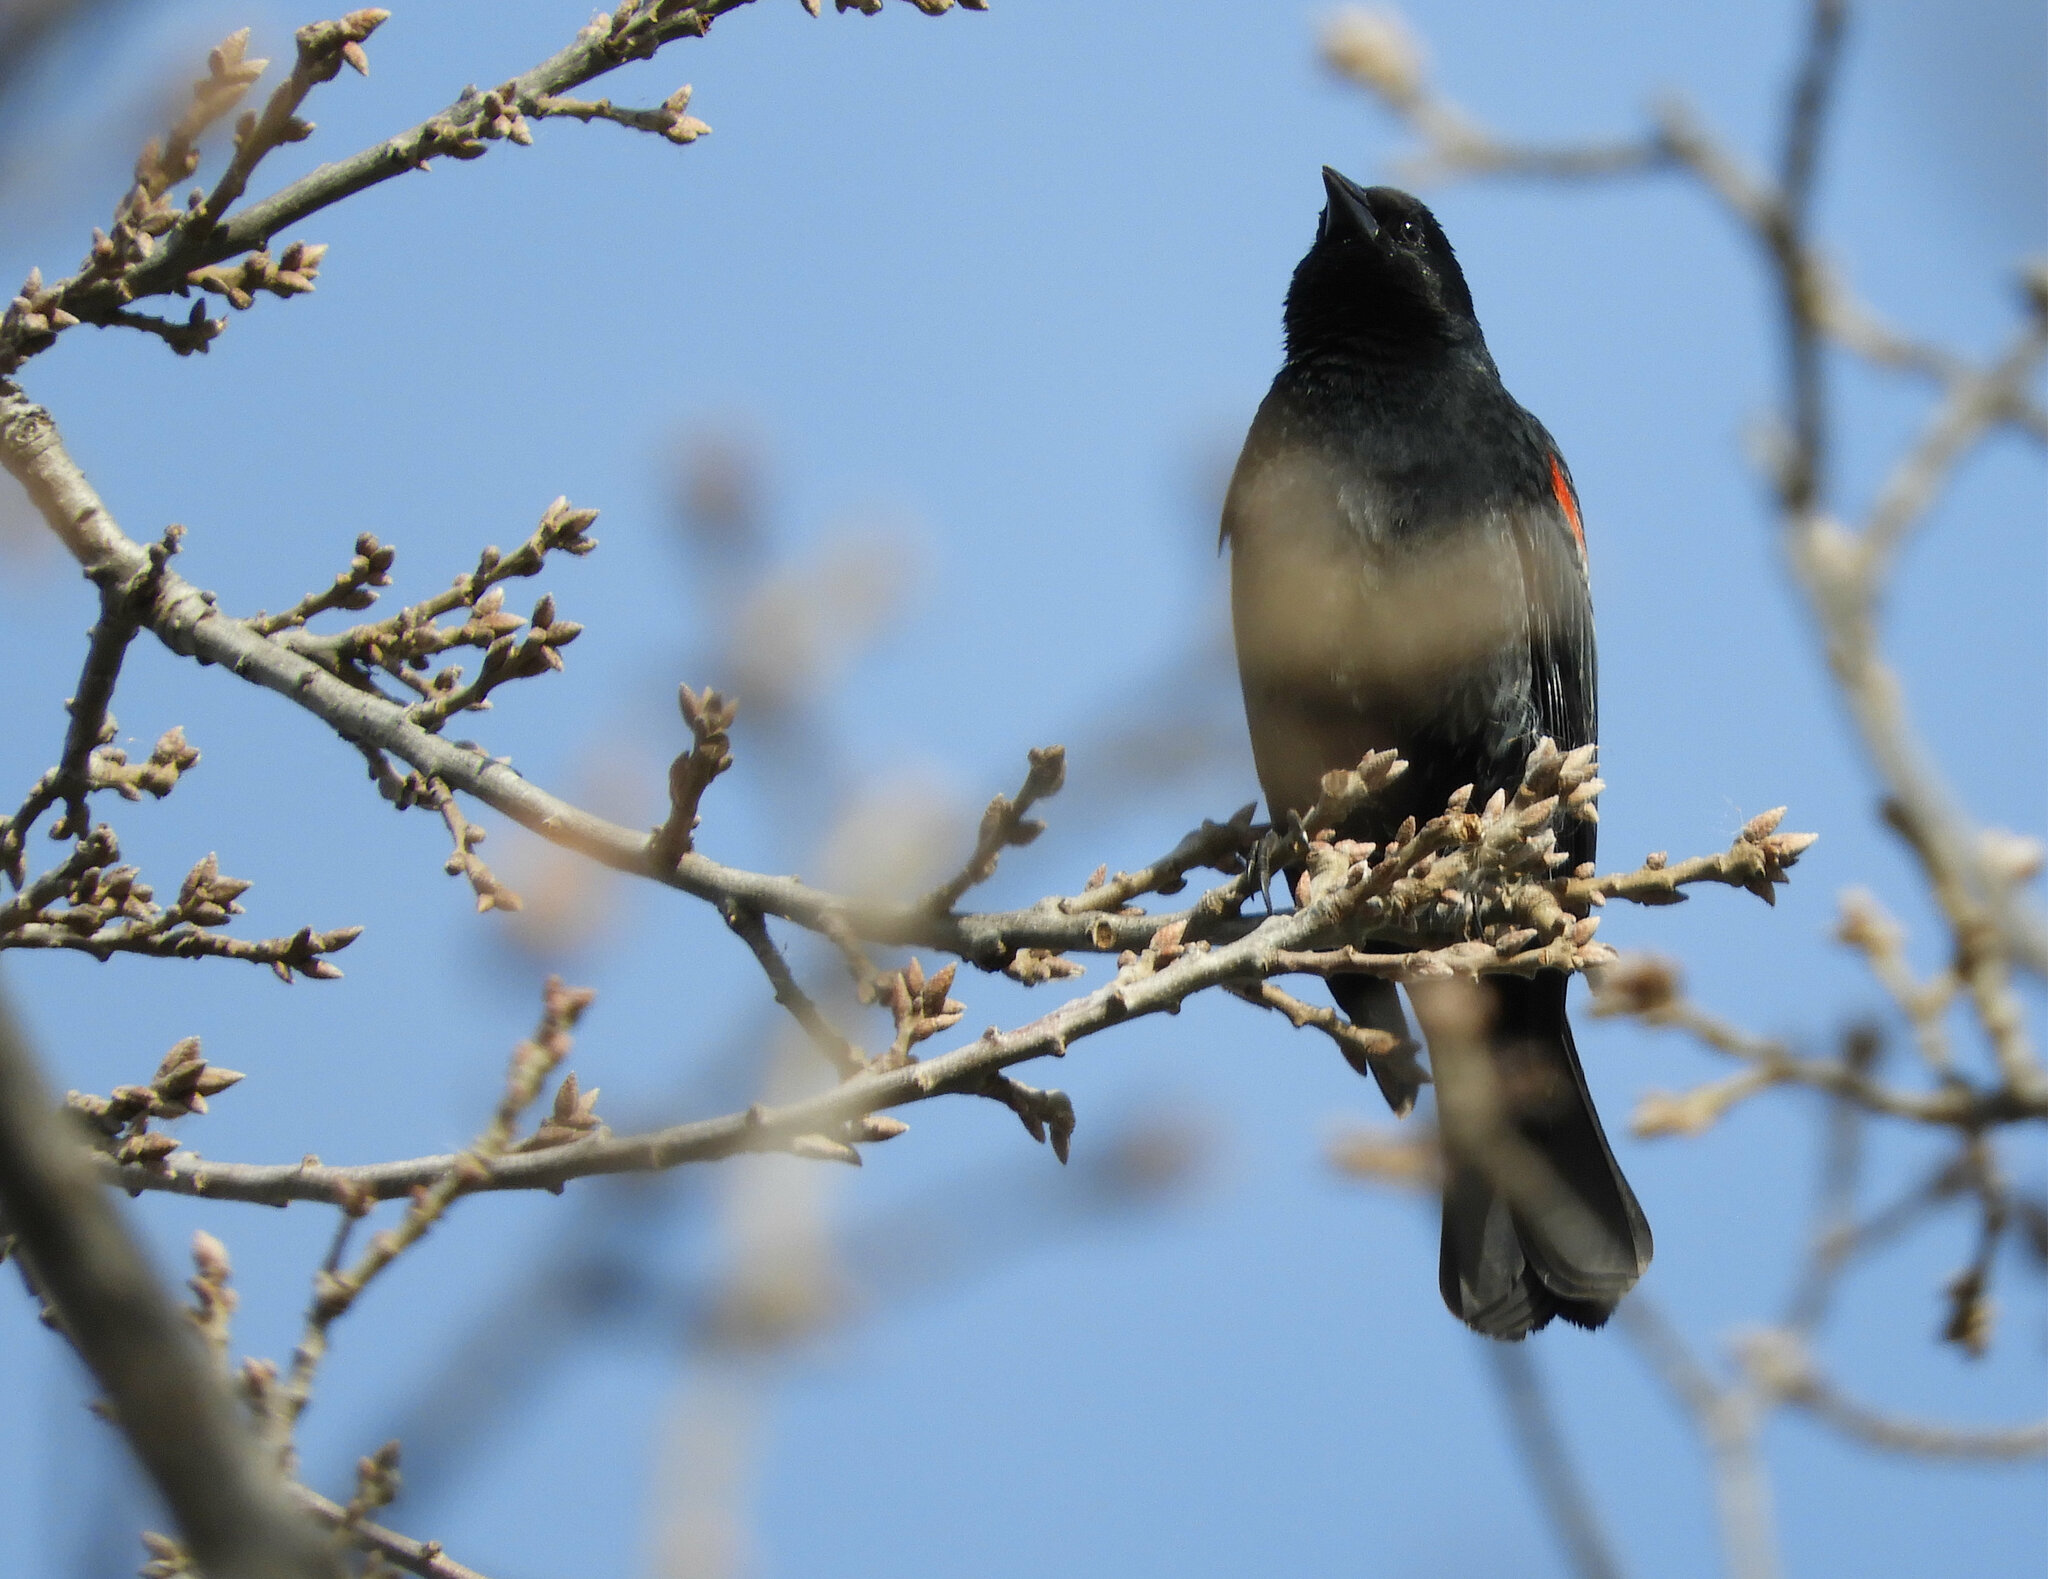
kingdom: Animalia
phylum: Chordata
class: Aves
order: Passeriformes
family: Icteridae
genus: Agelaius
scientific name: Agelaius phoeniceus
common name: Red-winged blackbird
